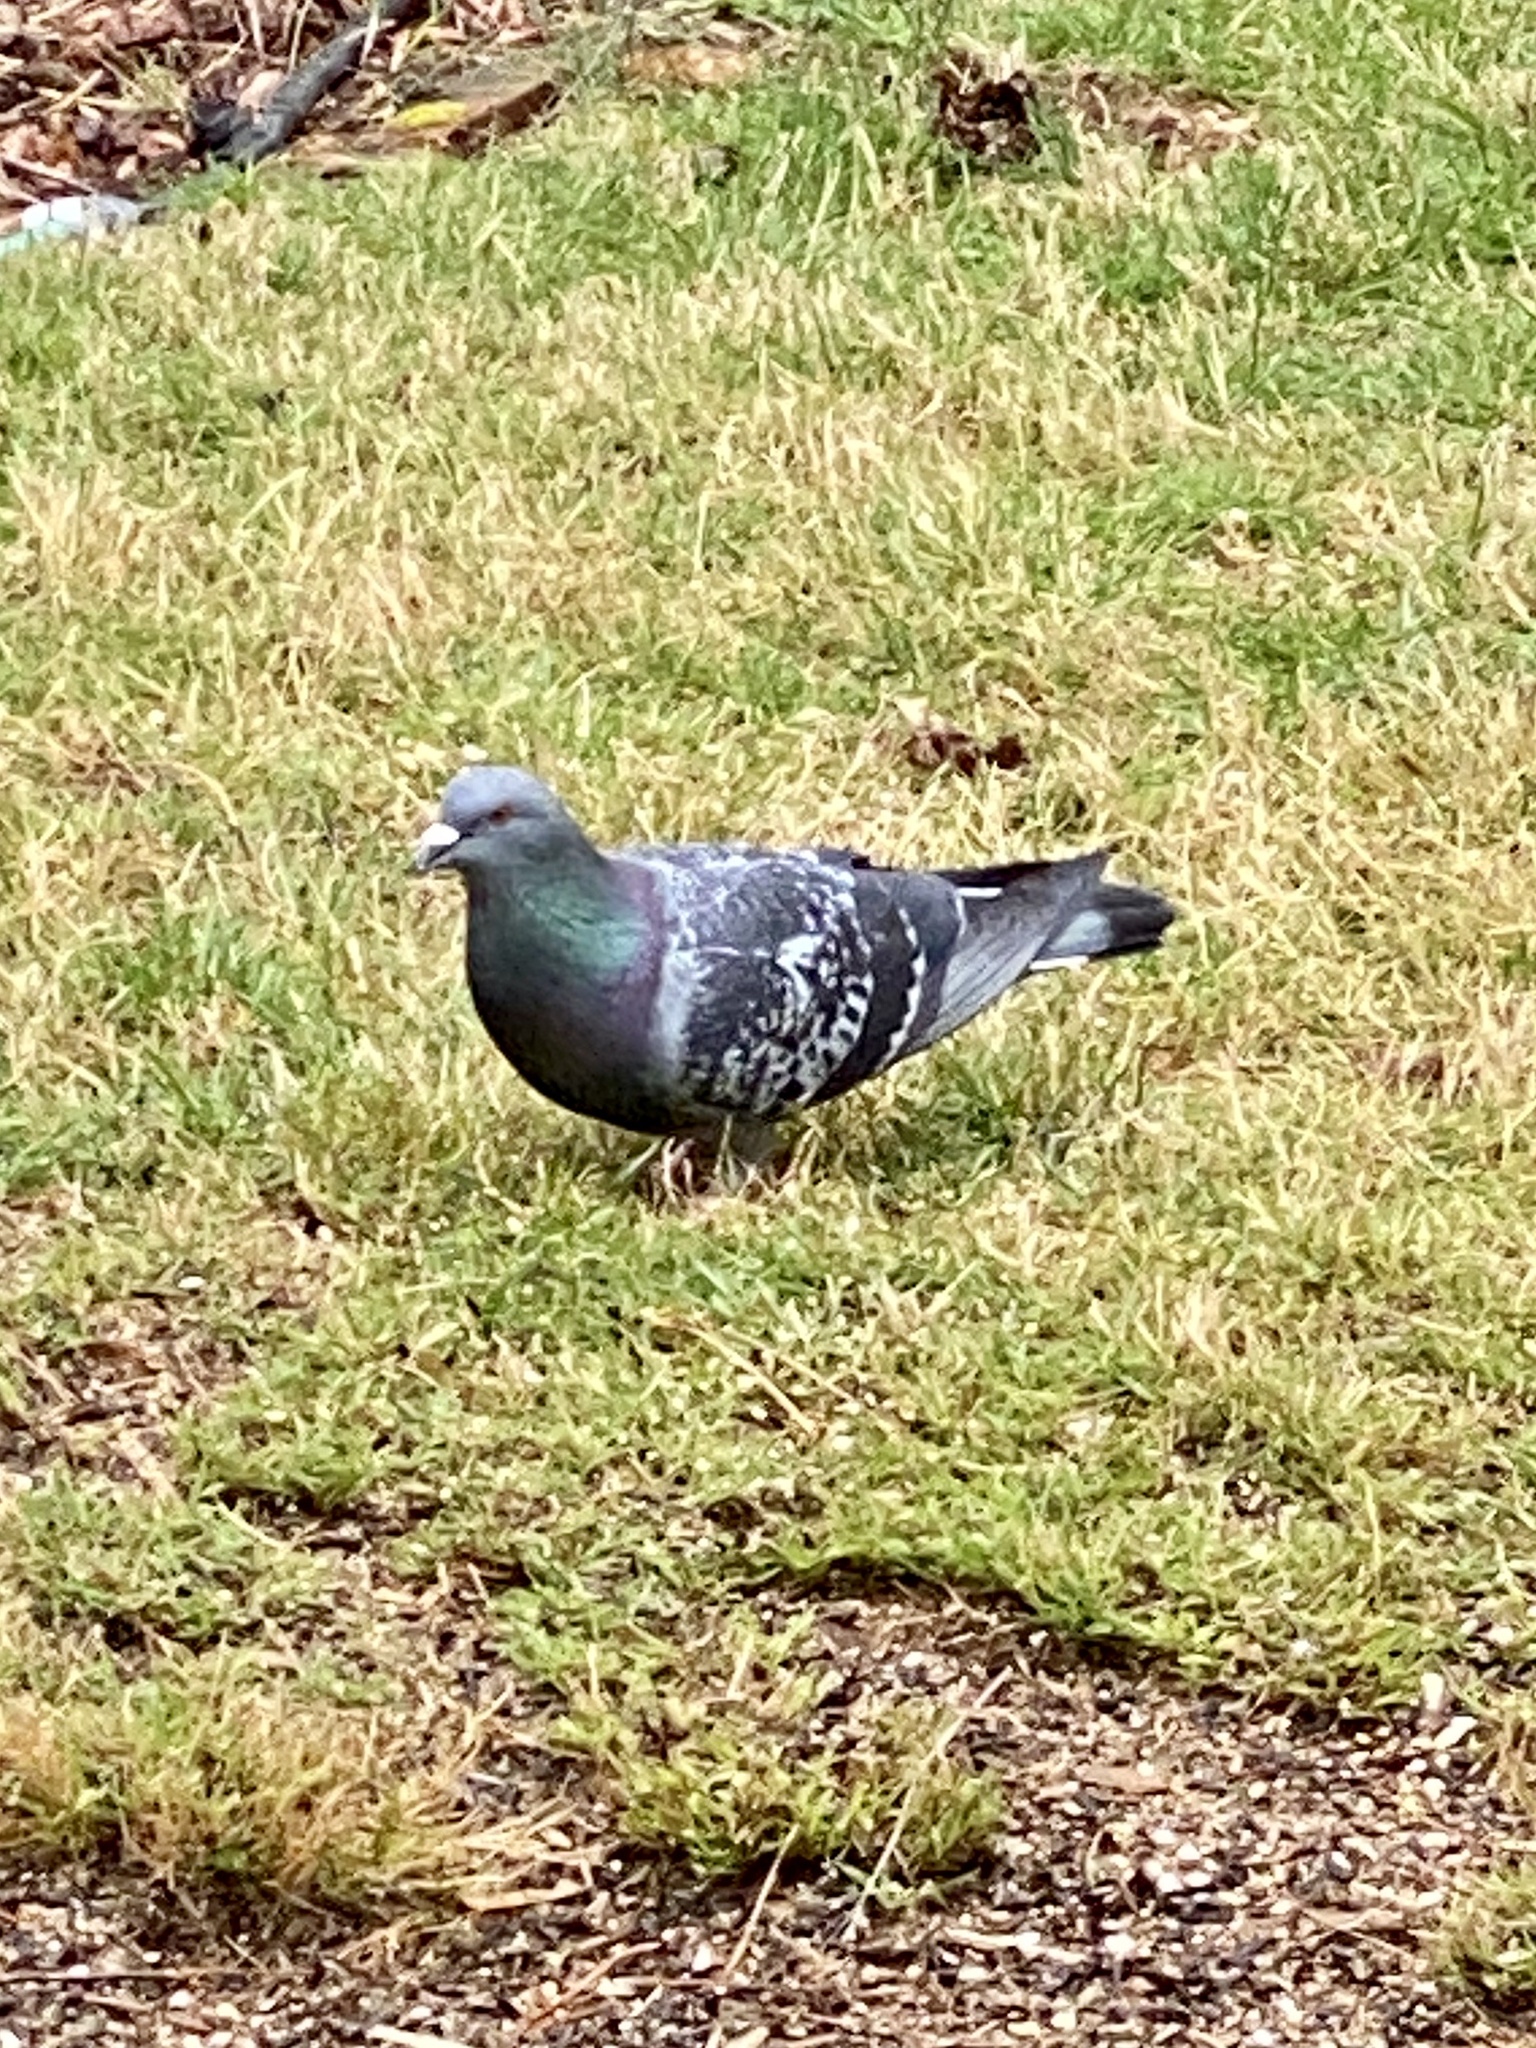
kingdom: Animalia
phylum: Chordata
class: Aves
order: Columbiformes
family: Columbidae
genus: Columba
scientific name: Columba livia
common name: Rock pigeon
